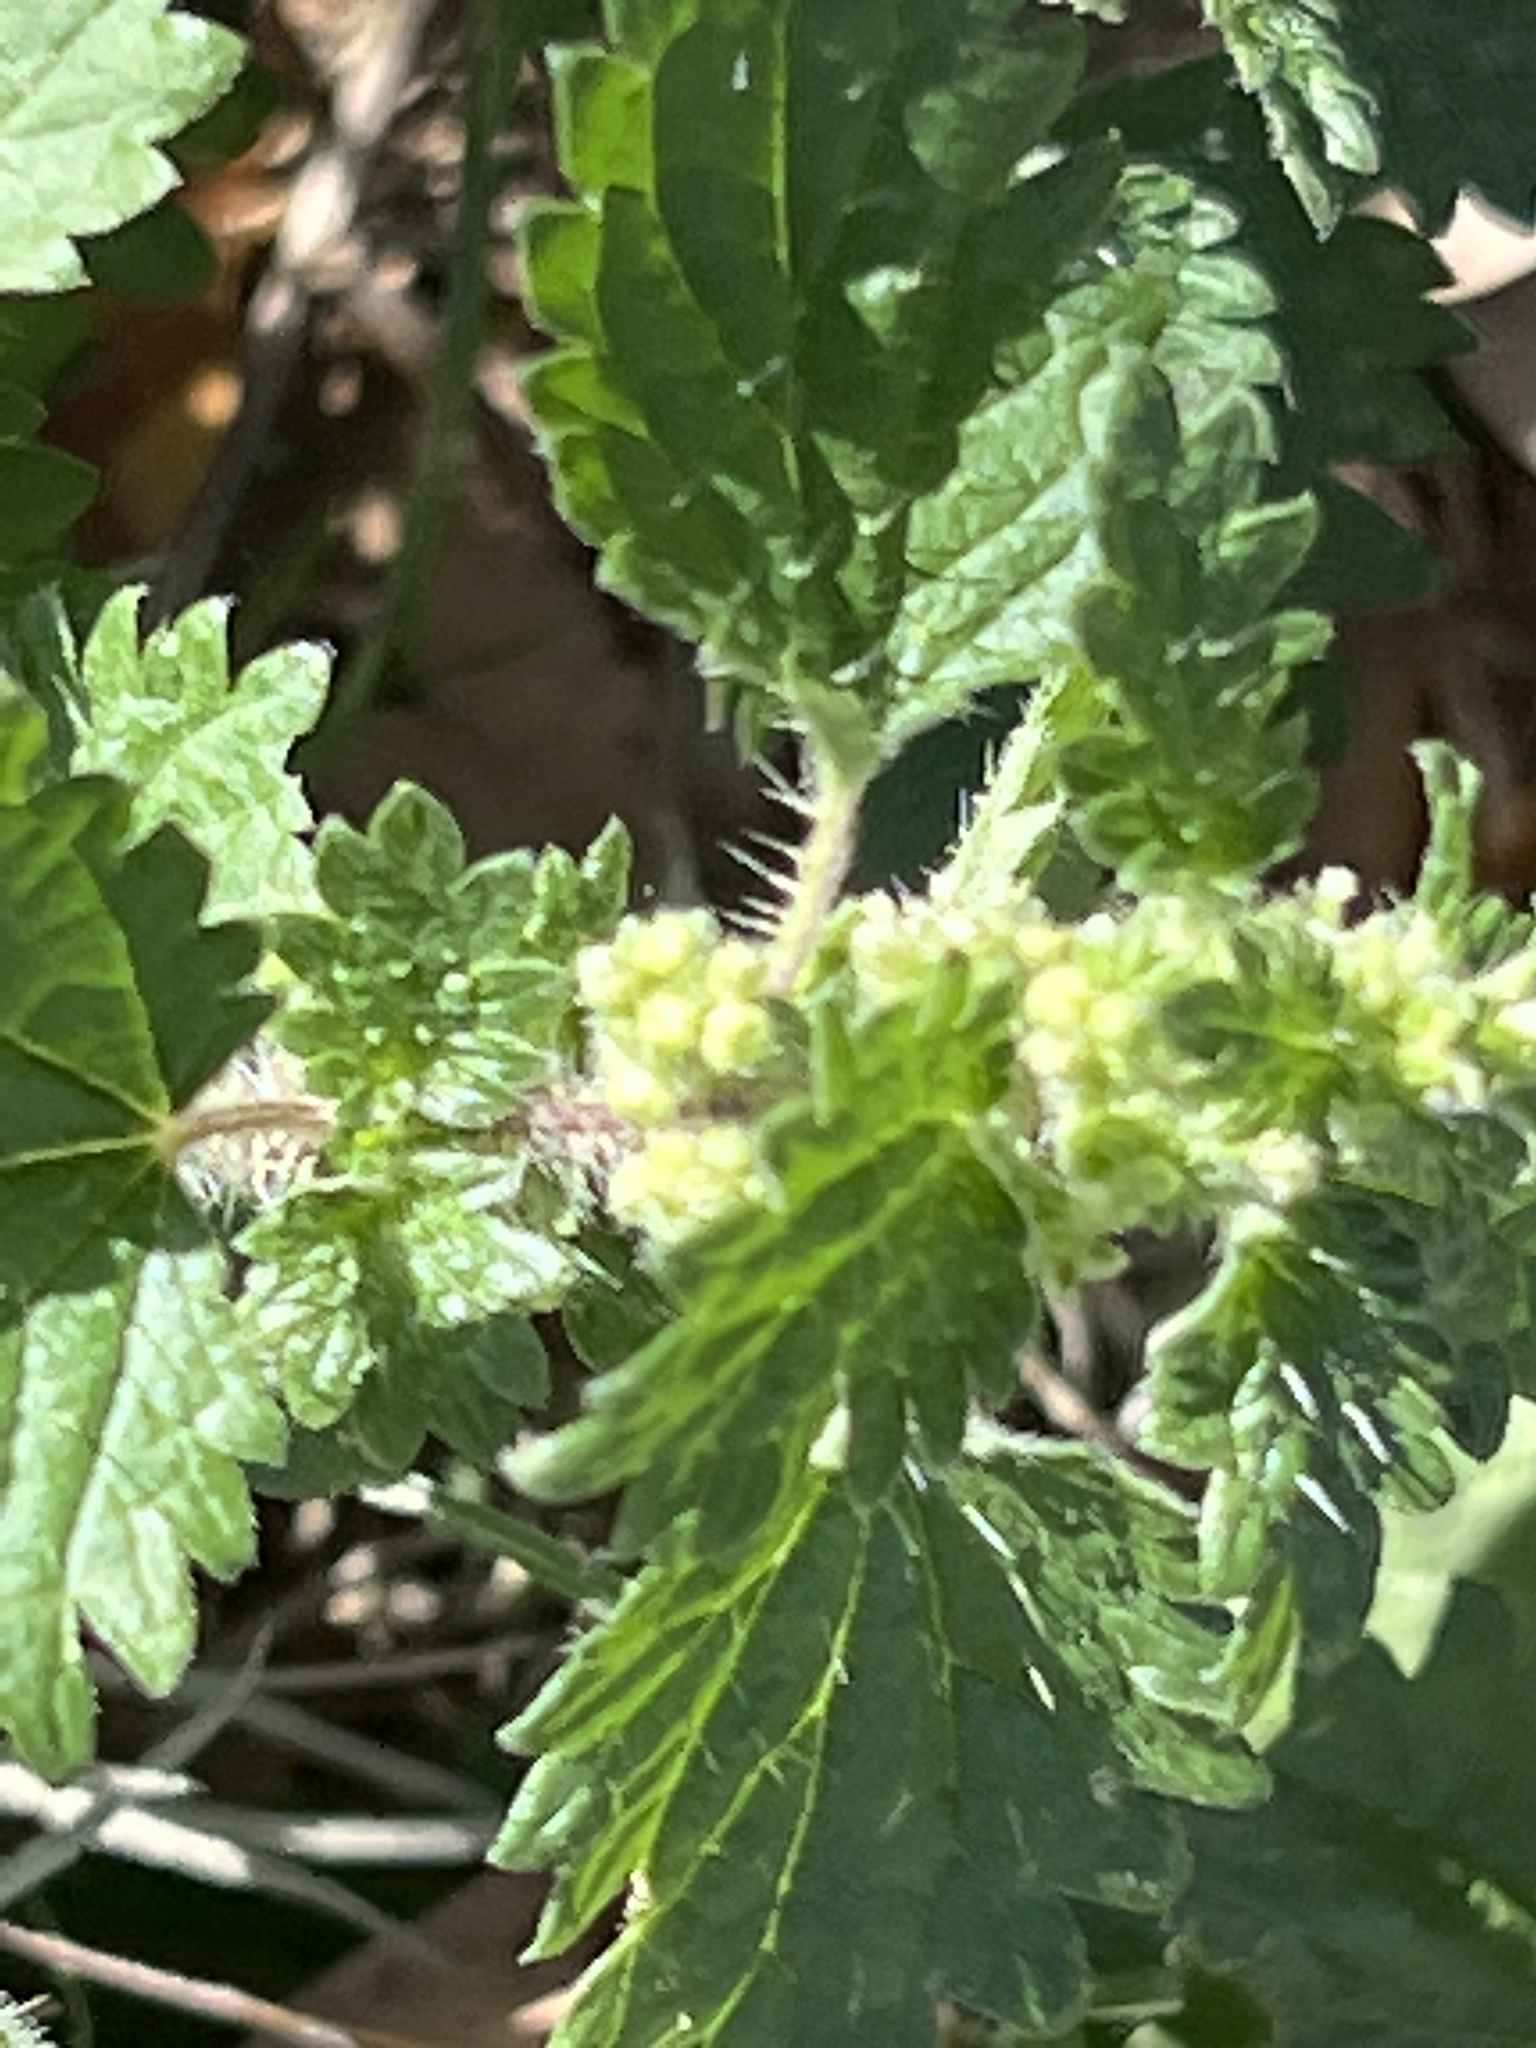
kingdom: Plantae
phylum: Tracheophyta
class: Magnoliopsida
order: Rosales
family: Urticaceae
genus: Urtica
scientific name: Urtica chamaedryoides
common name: Heart-leaf nettle
